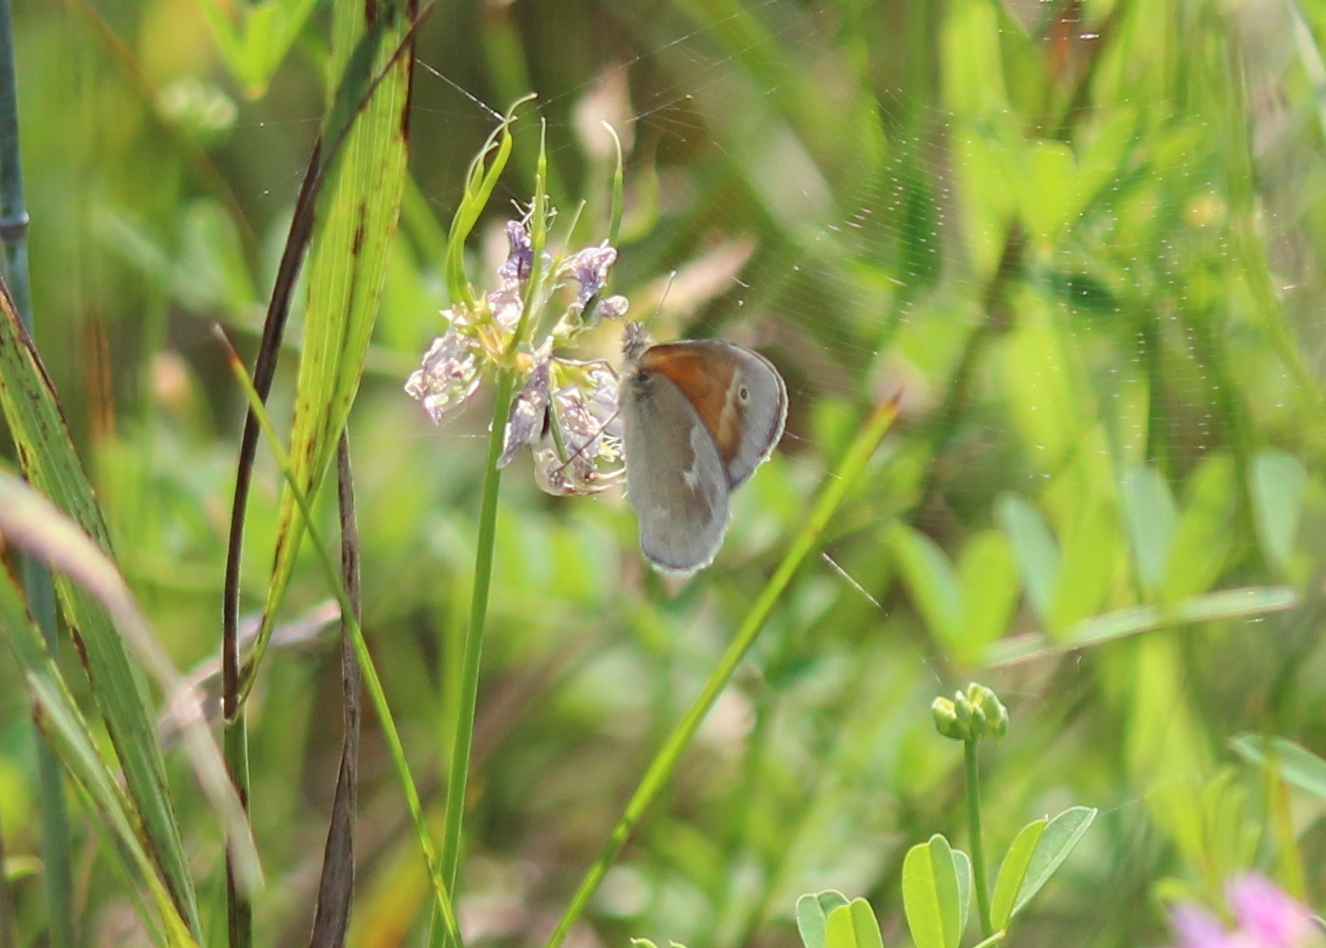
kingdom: Animalia
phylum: Arthropoda
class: Insecta
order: Lepidoptera
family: Nymphalidae
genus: Coenonympha
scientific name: Coenonympha california
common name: Common ringlet
